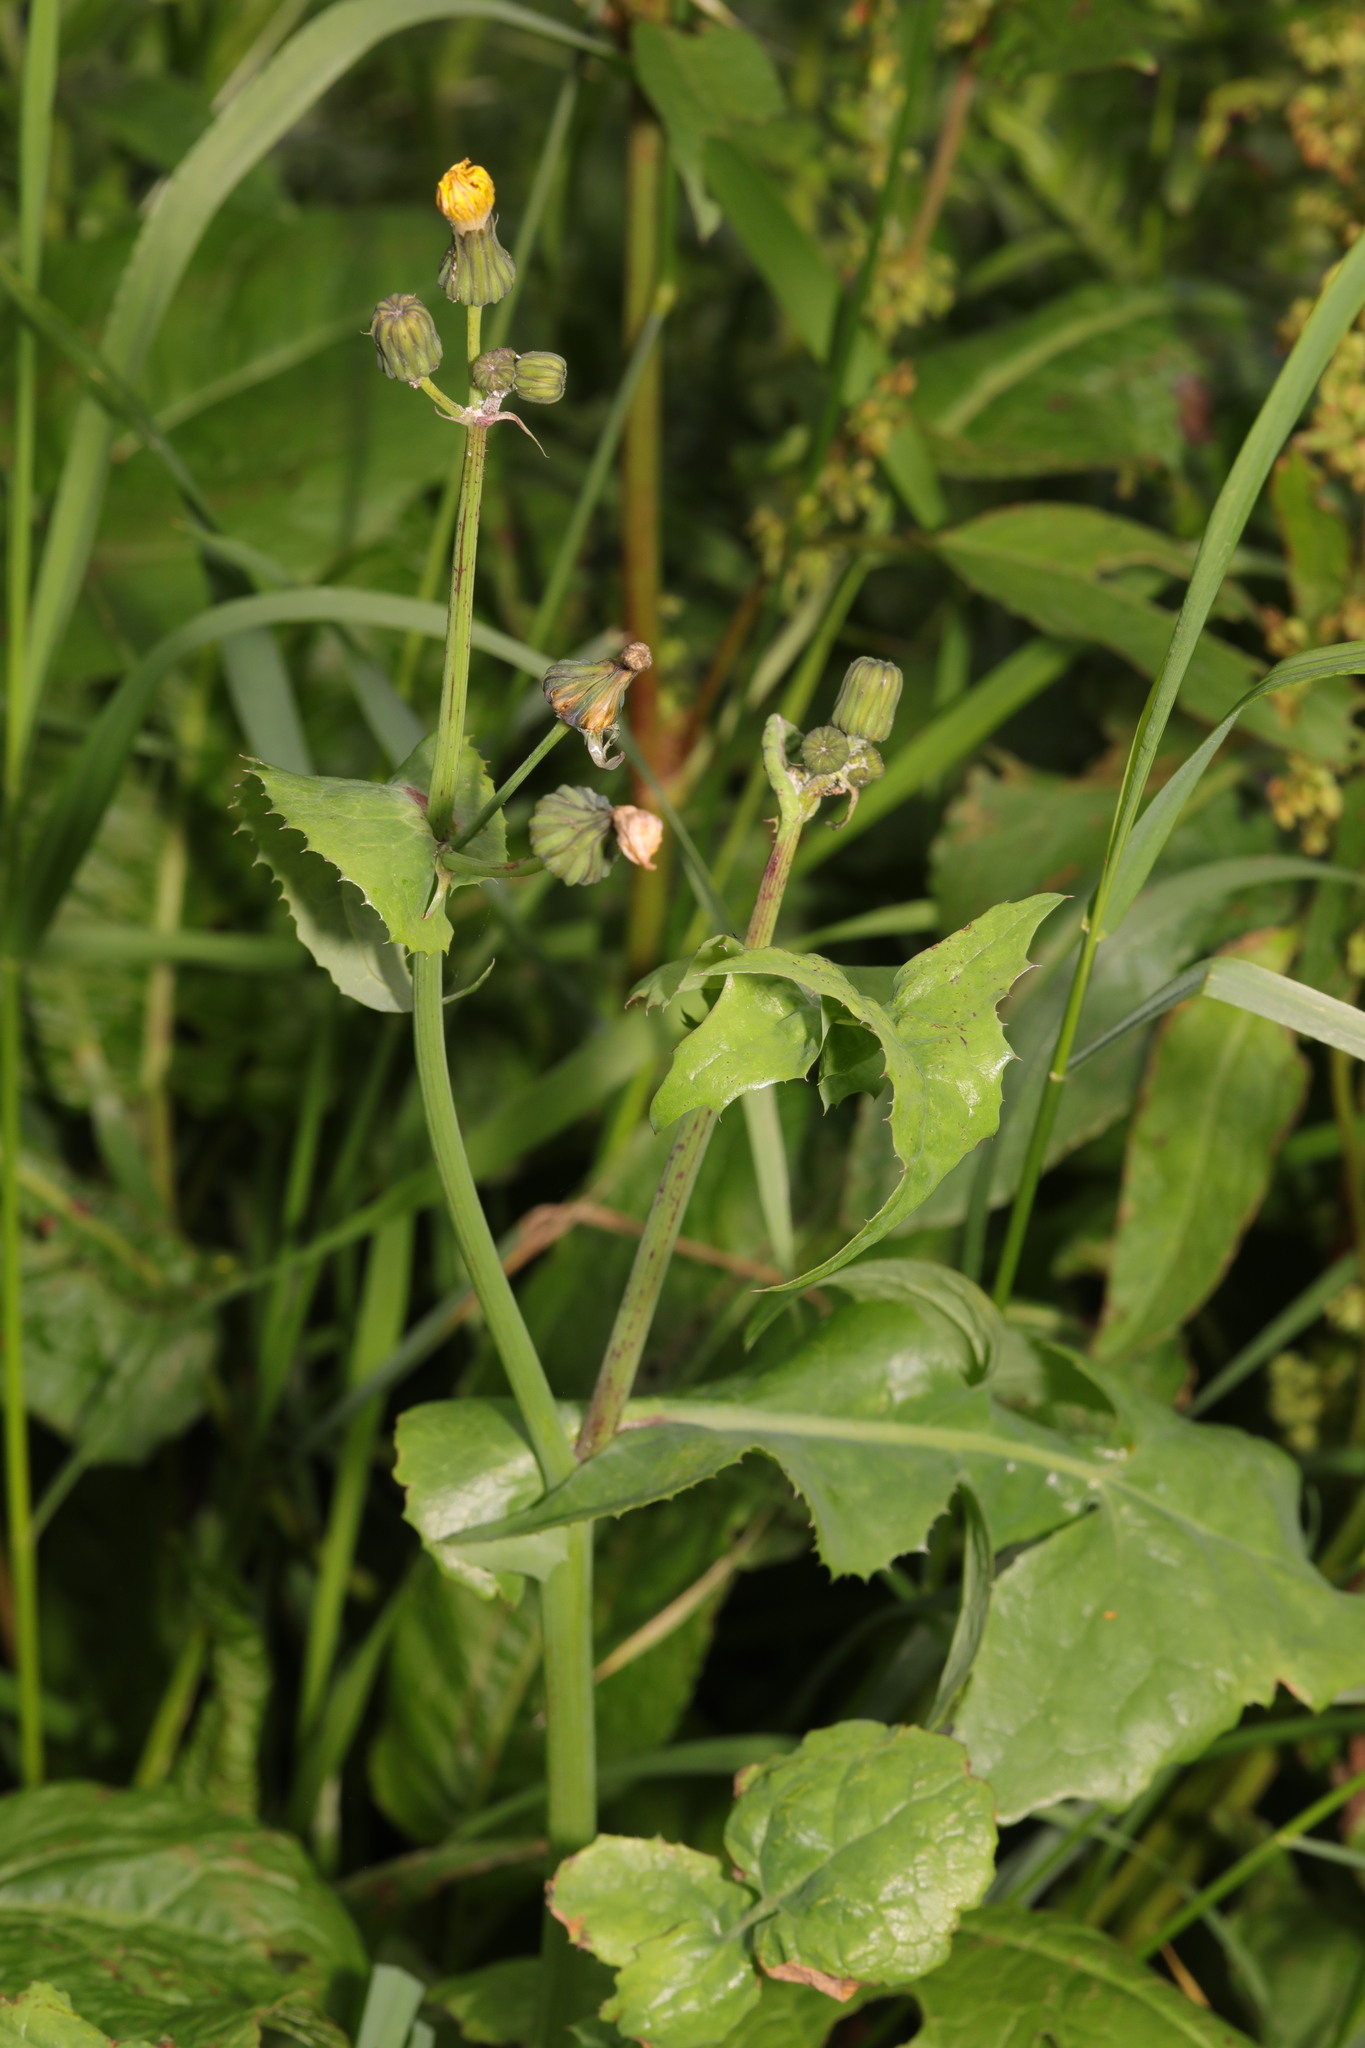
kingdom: Plantae
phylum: Tracheophyta
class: Magnoliopsida
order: Asterales
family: Asteraceae
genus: Sonchus
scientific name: Sonchus oleraceus
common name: Common sowthistle
